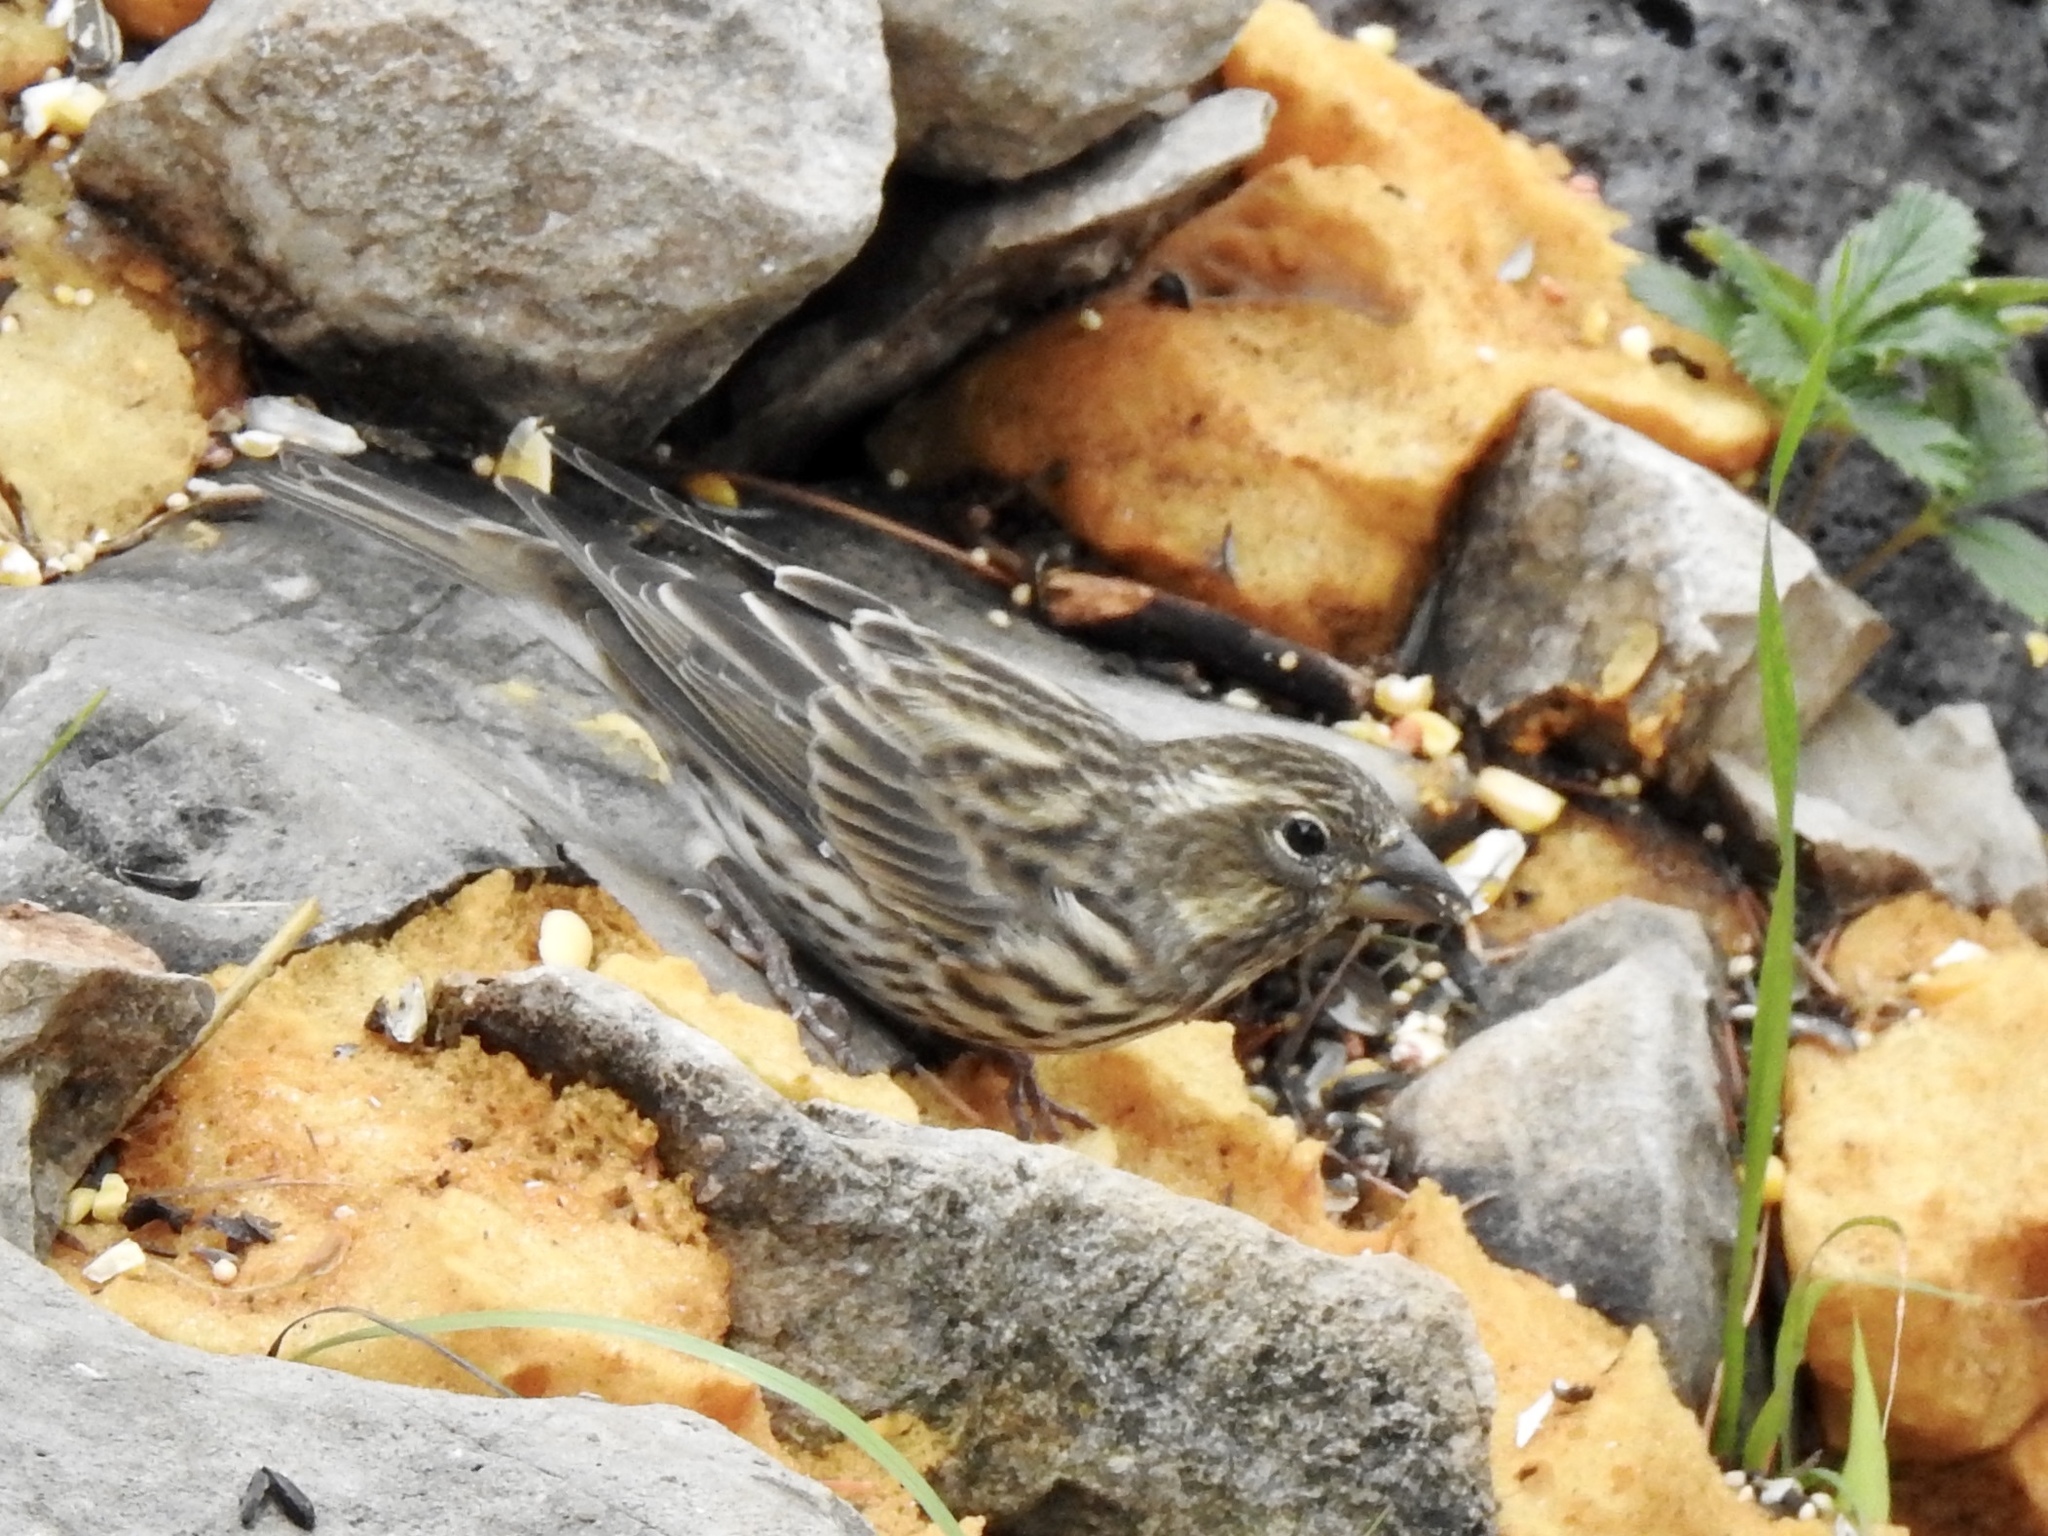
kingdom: Animalia
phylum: Chordata
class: Aves
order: Passeriformes
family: Fringillidae
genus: Haemorhous
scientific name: Haemorhous cassinii
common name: Cassin's finch
